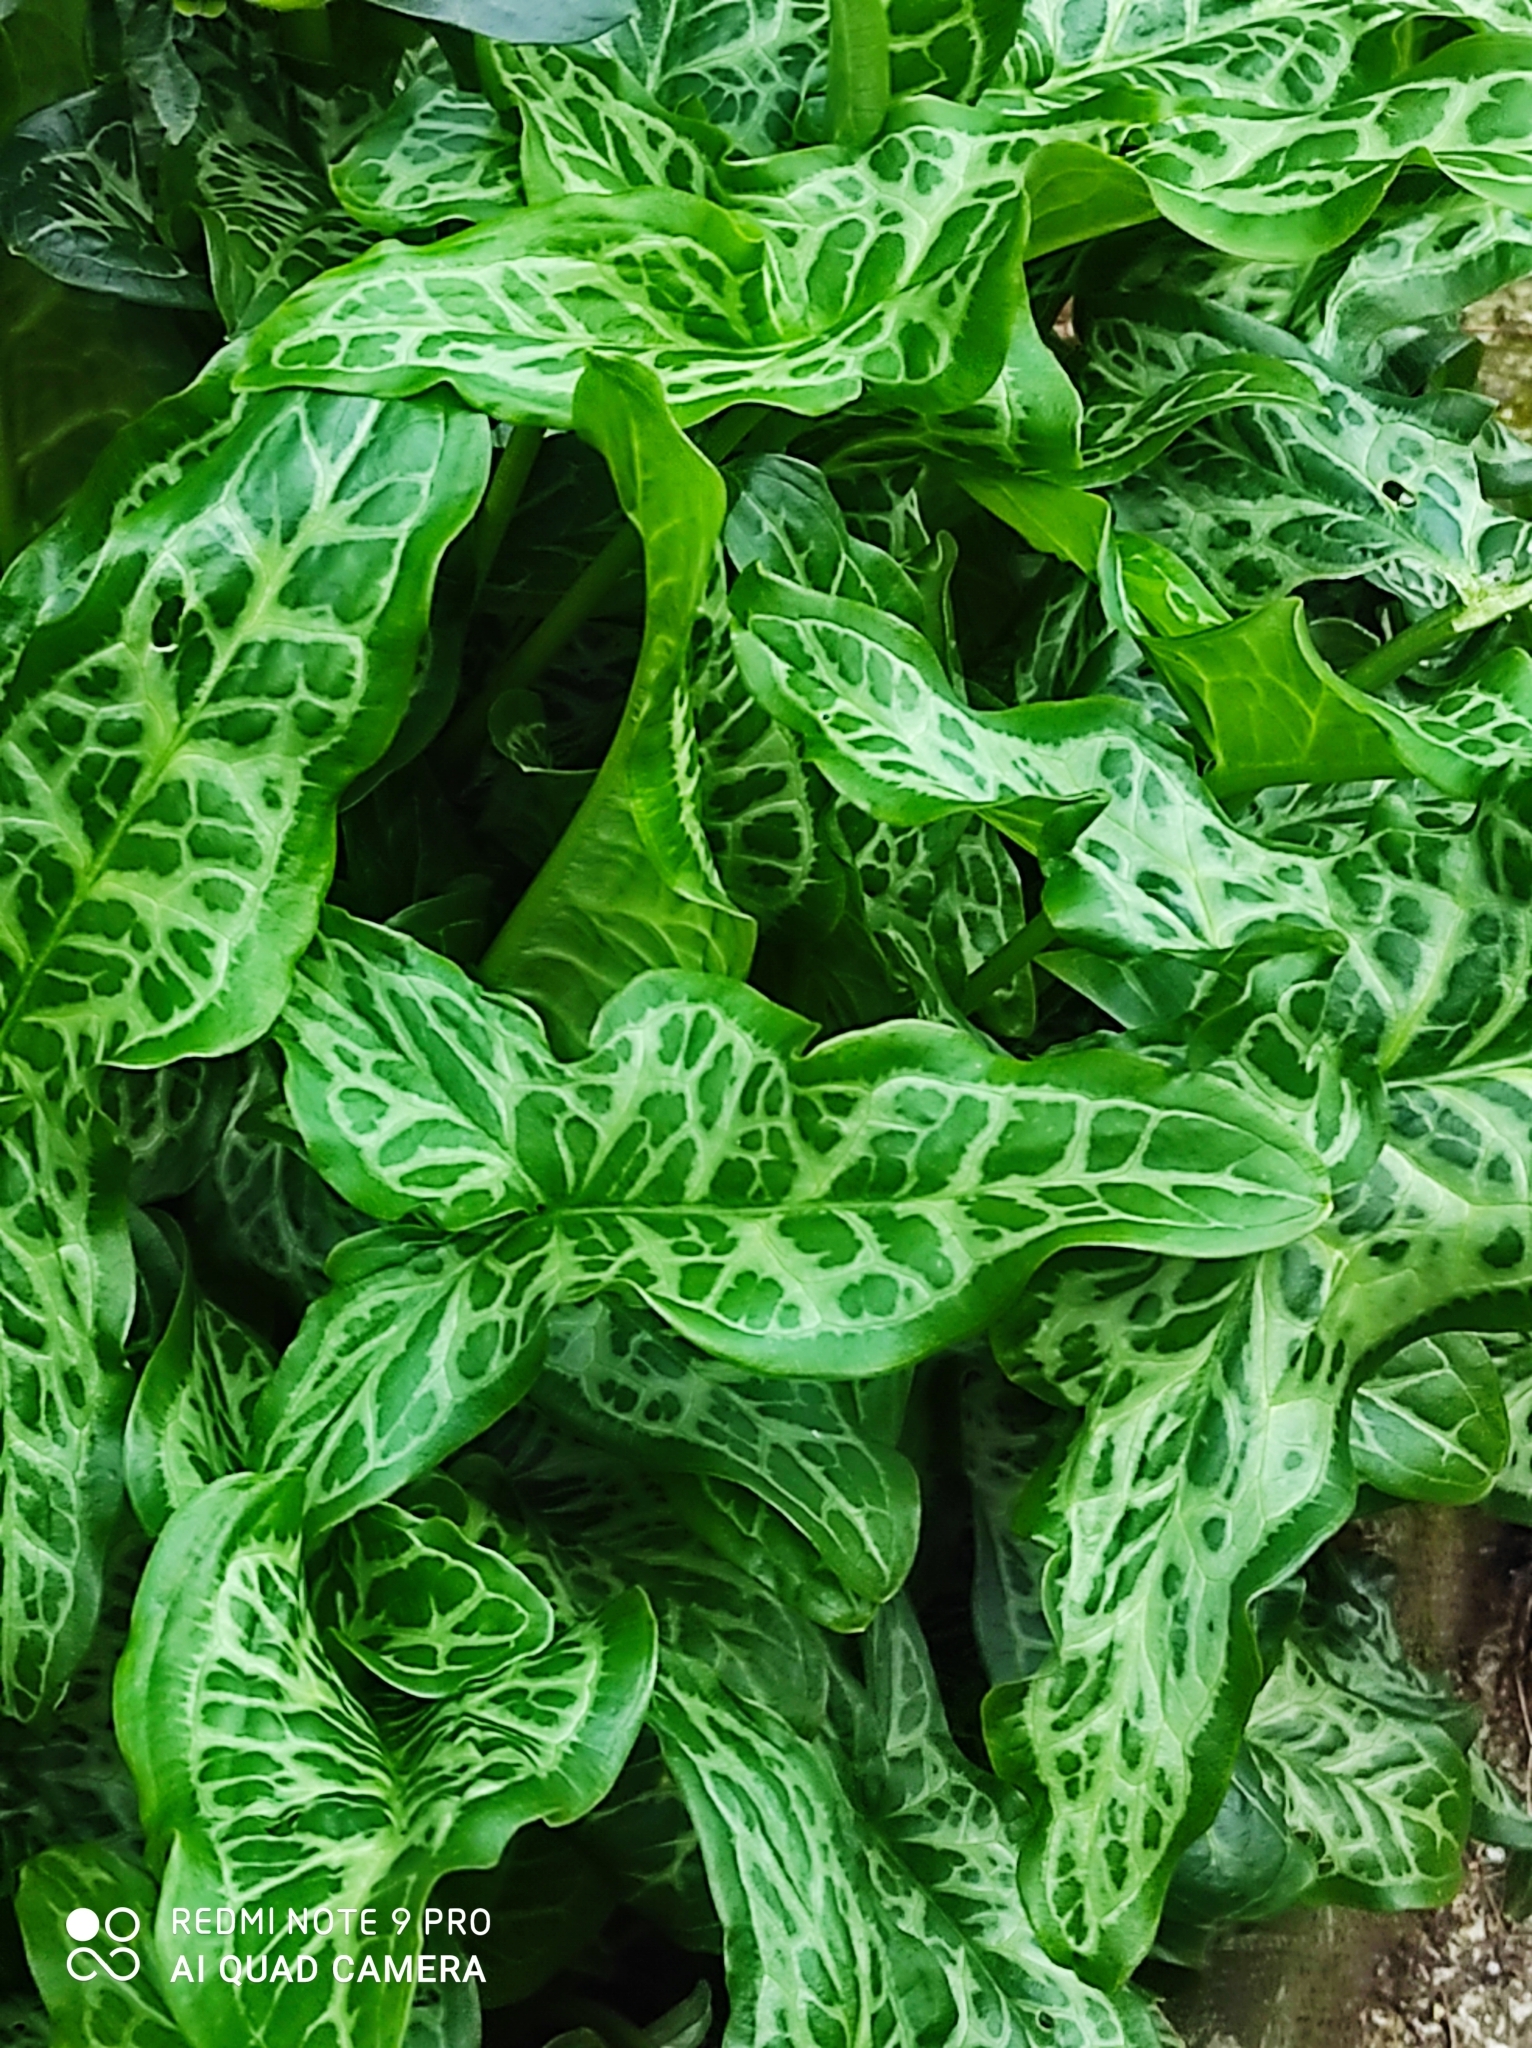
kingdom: Plantae
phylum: Tracheophyta
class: Liliopsida
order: Alismatales
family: Araceae
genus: Arum
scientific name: Arum italicum
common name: Italian lords-and-ladies
